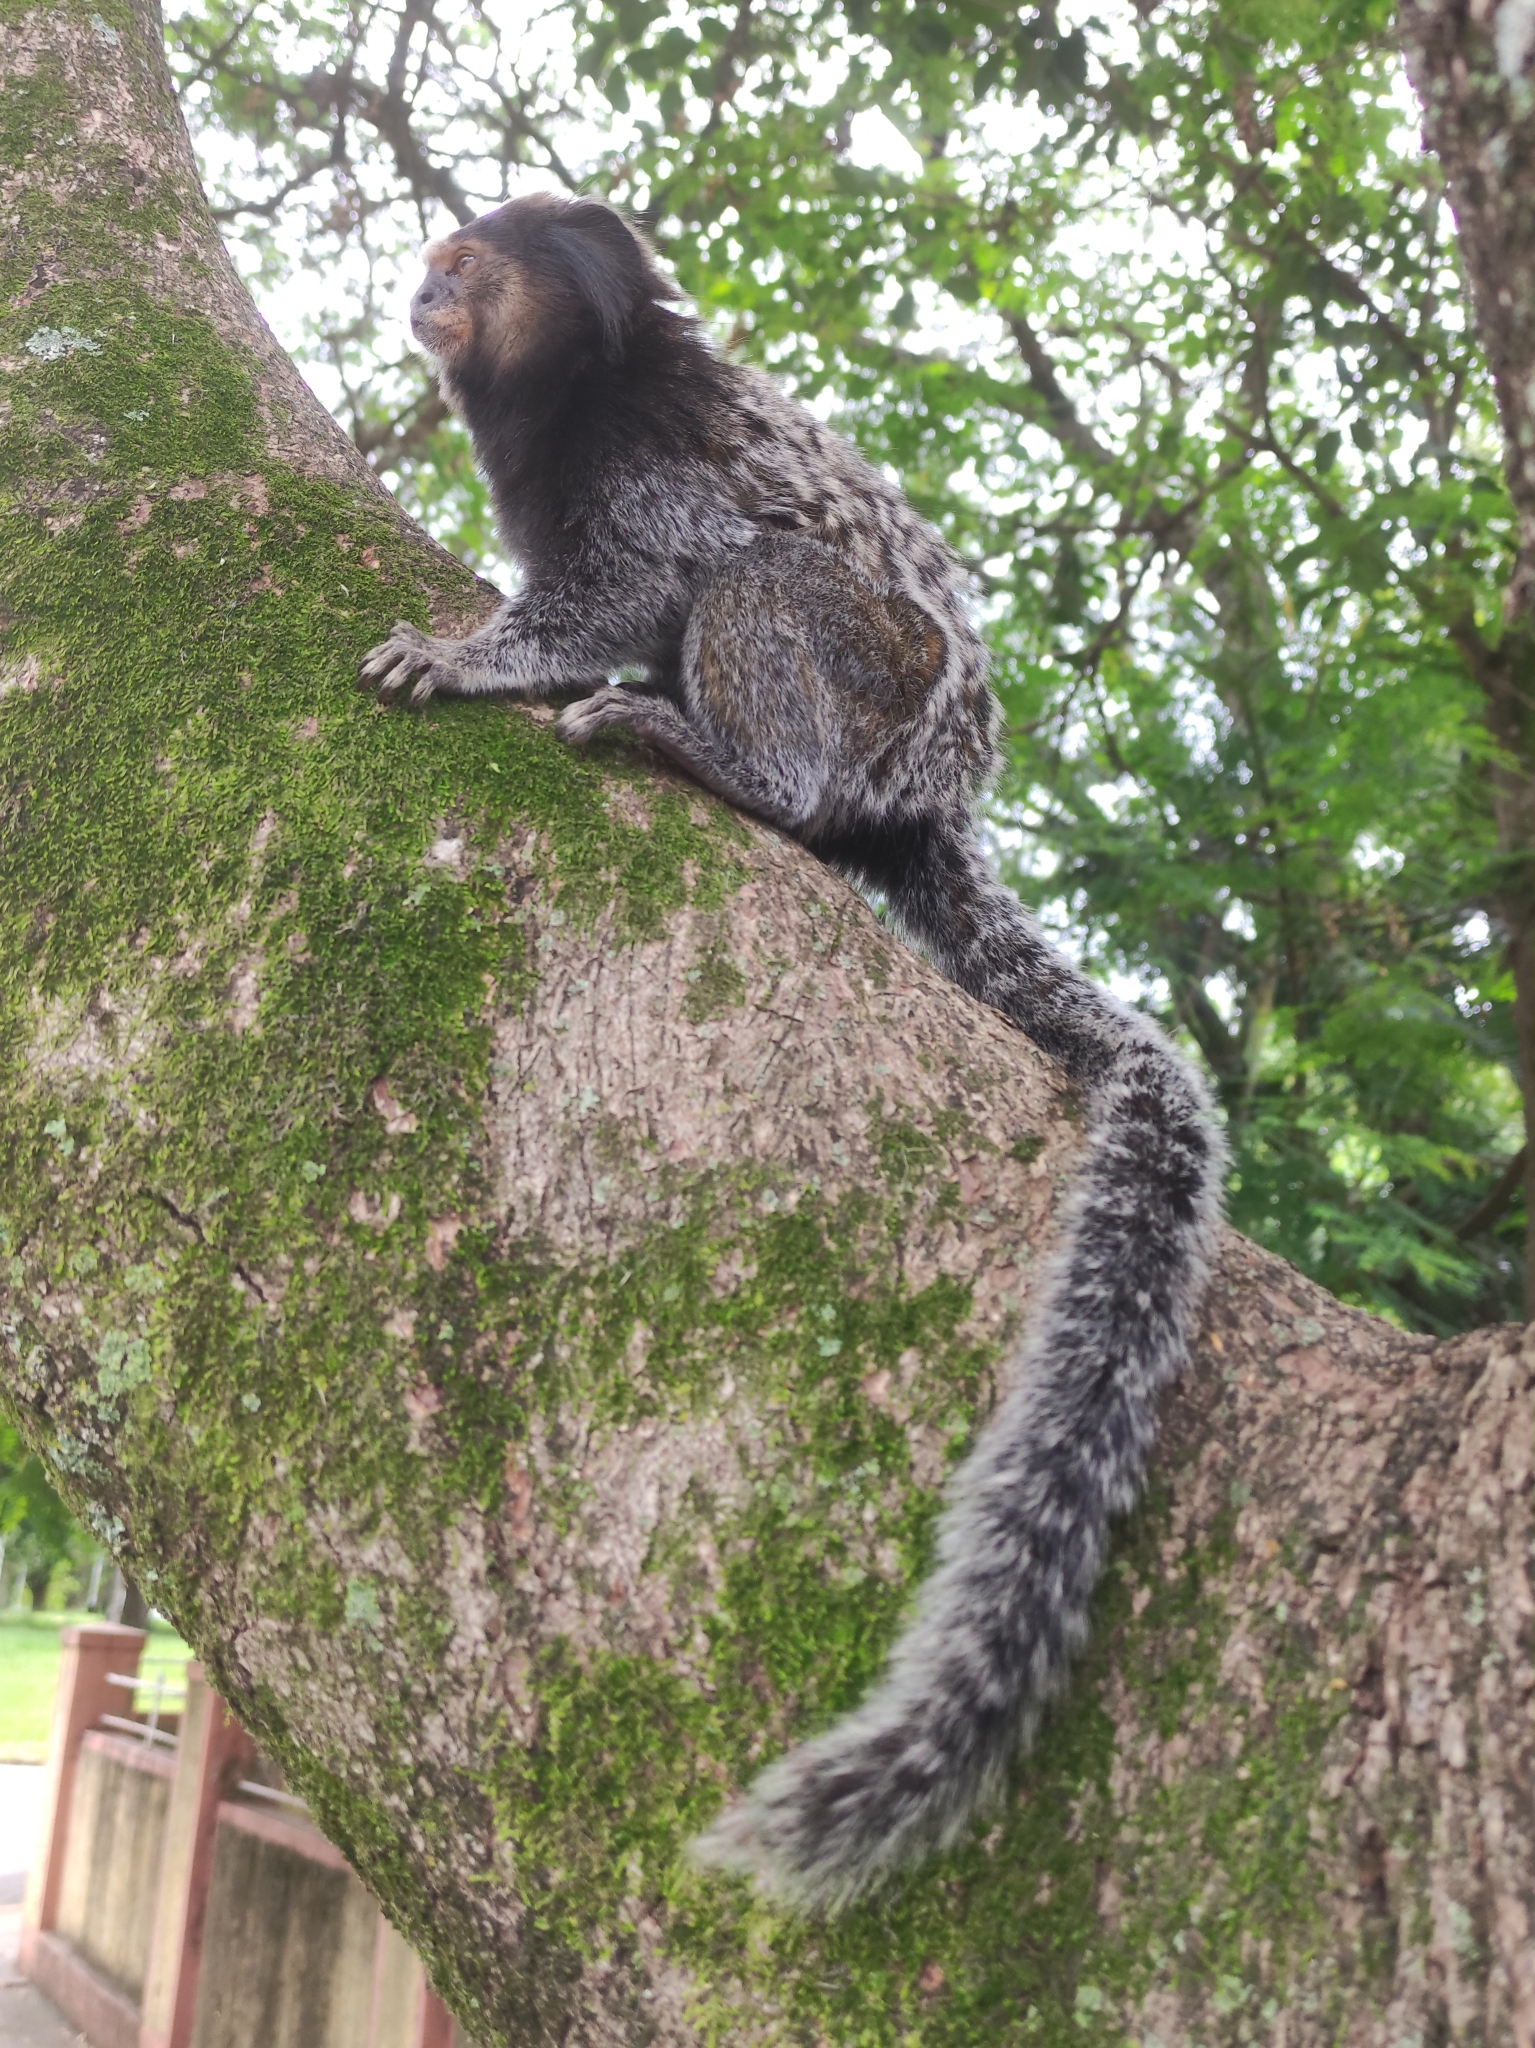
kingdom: Animalia
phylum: Chordata
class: Mammalia
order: Primates
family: Callitrichidae
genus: Callithrix
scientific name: Callithrix penicillata
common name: Black-tufted marmoset
